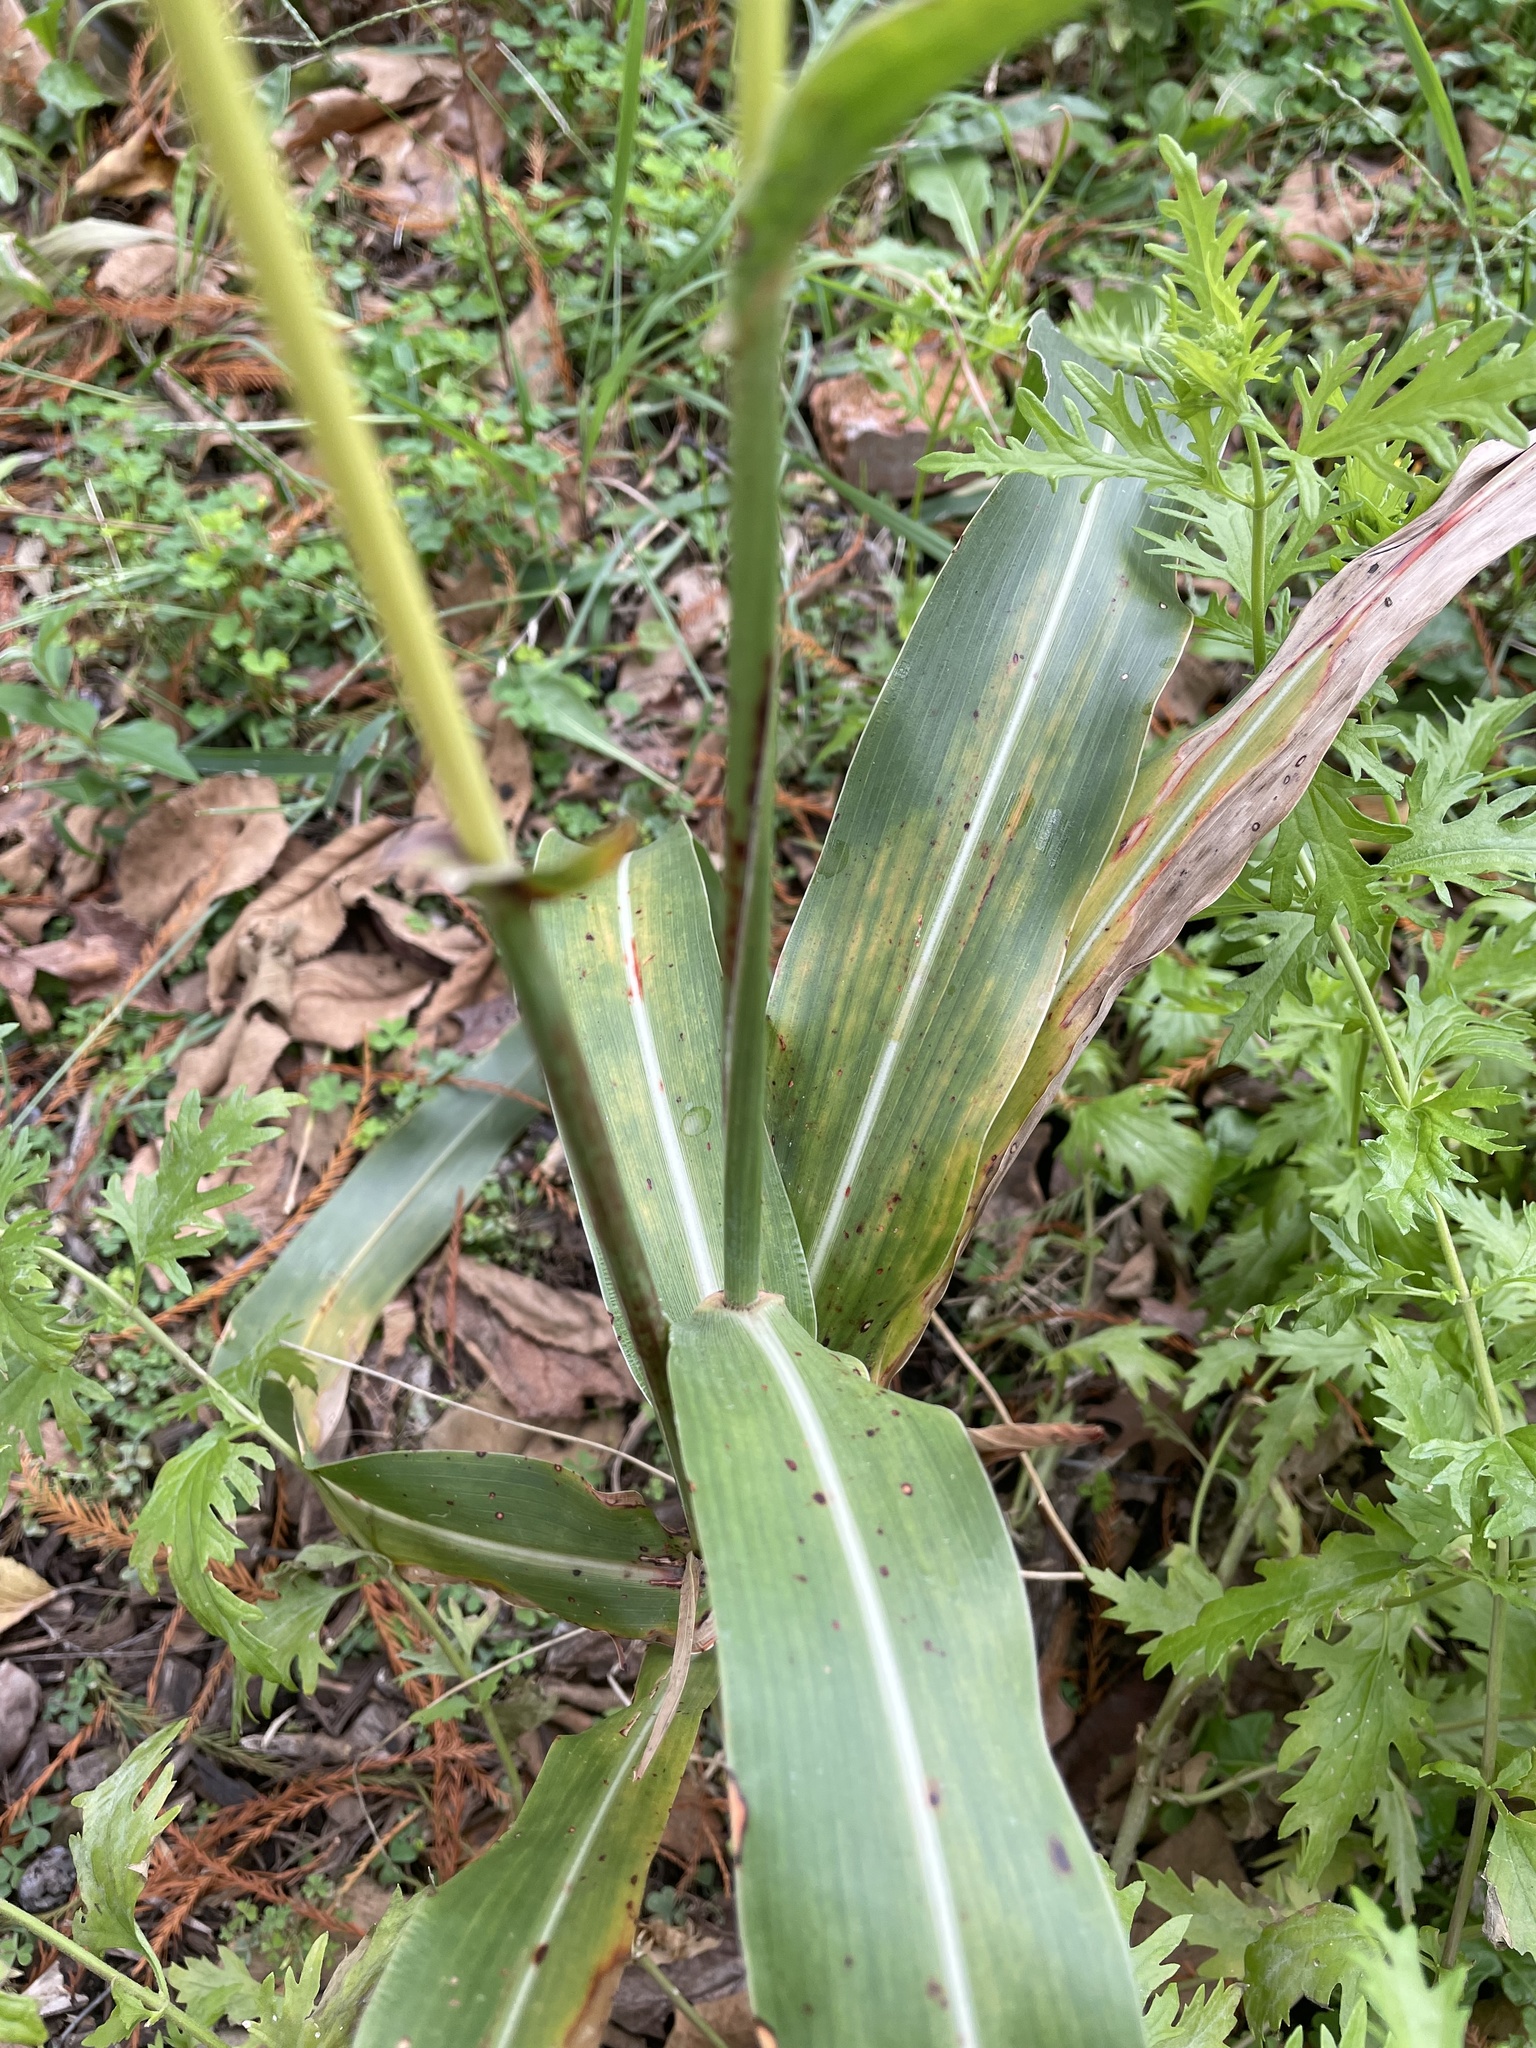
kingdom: Plantae
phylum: Tracheophyta
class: Liliopsida
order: Poales
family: Poaceae
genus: Sorghum
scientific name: Sorghum bicolor
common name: Sorghum
